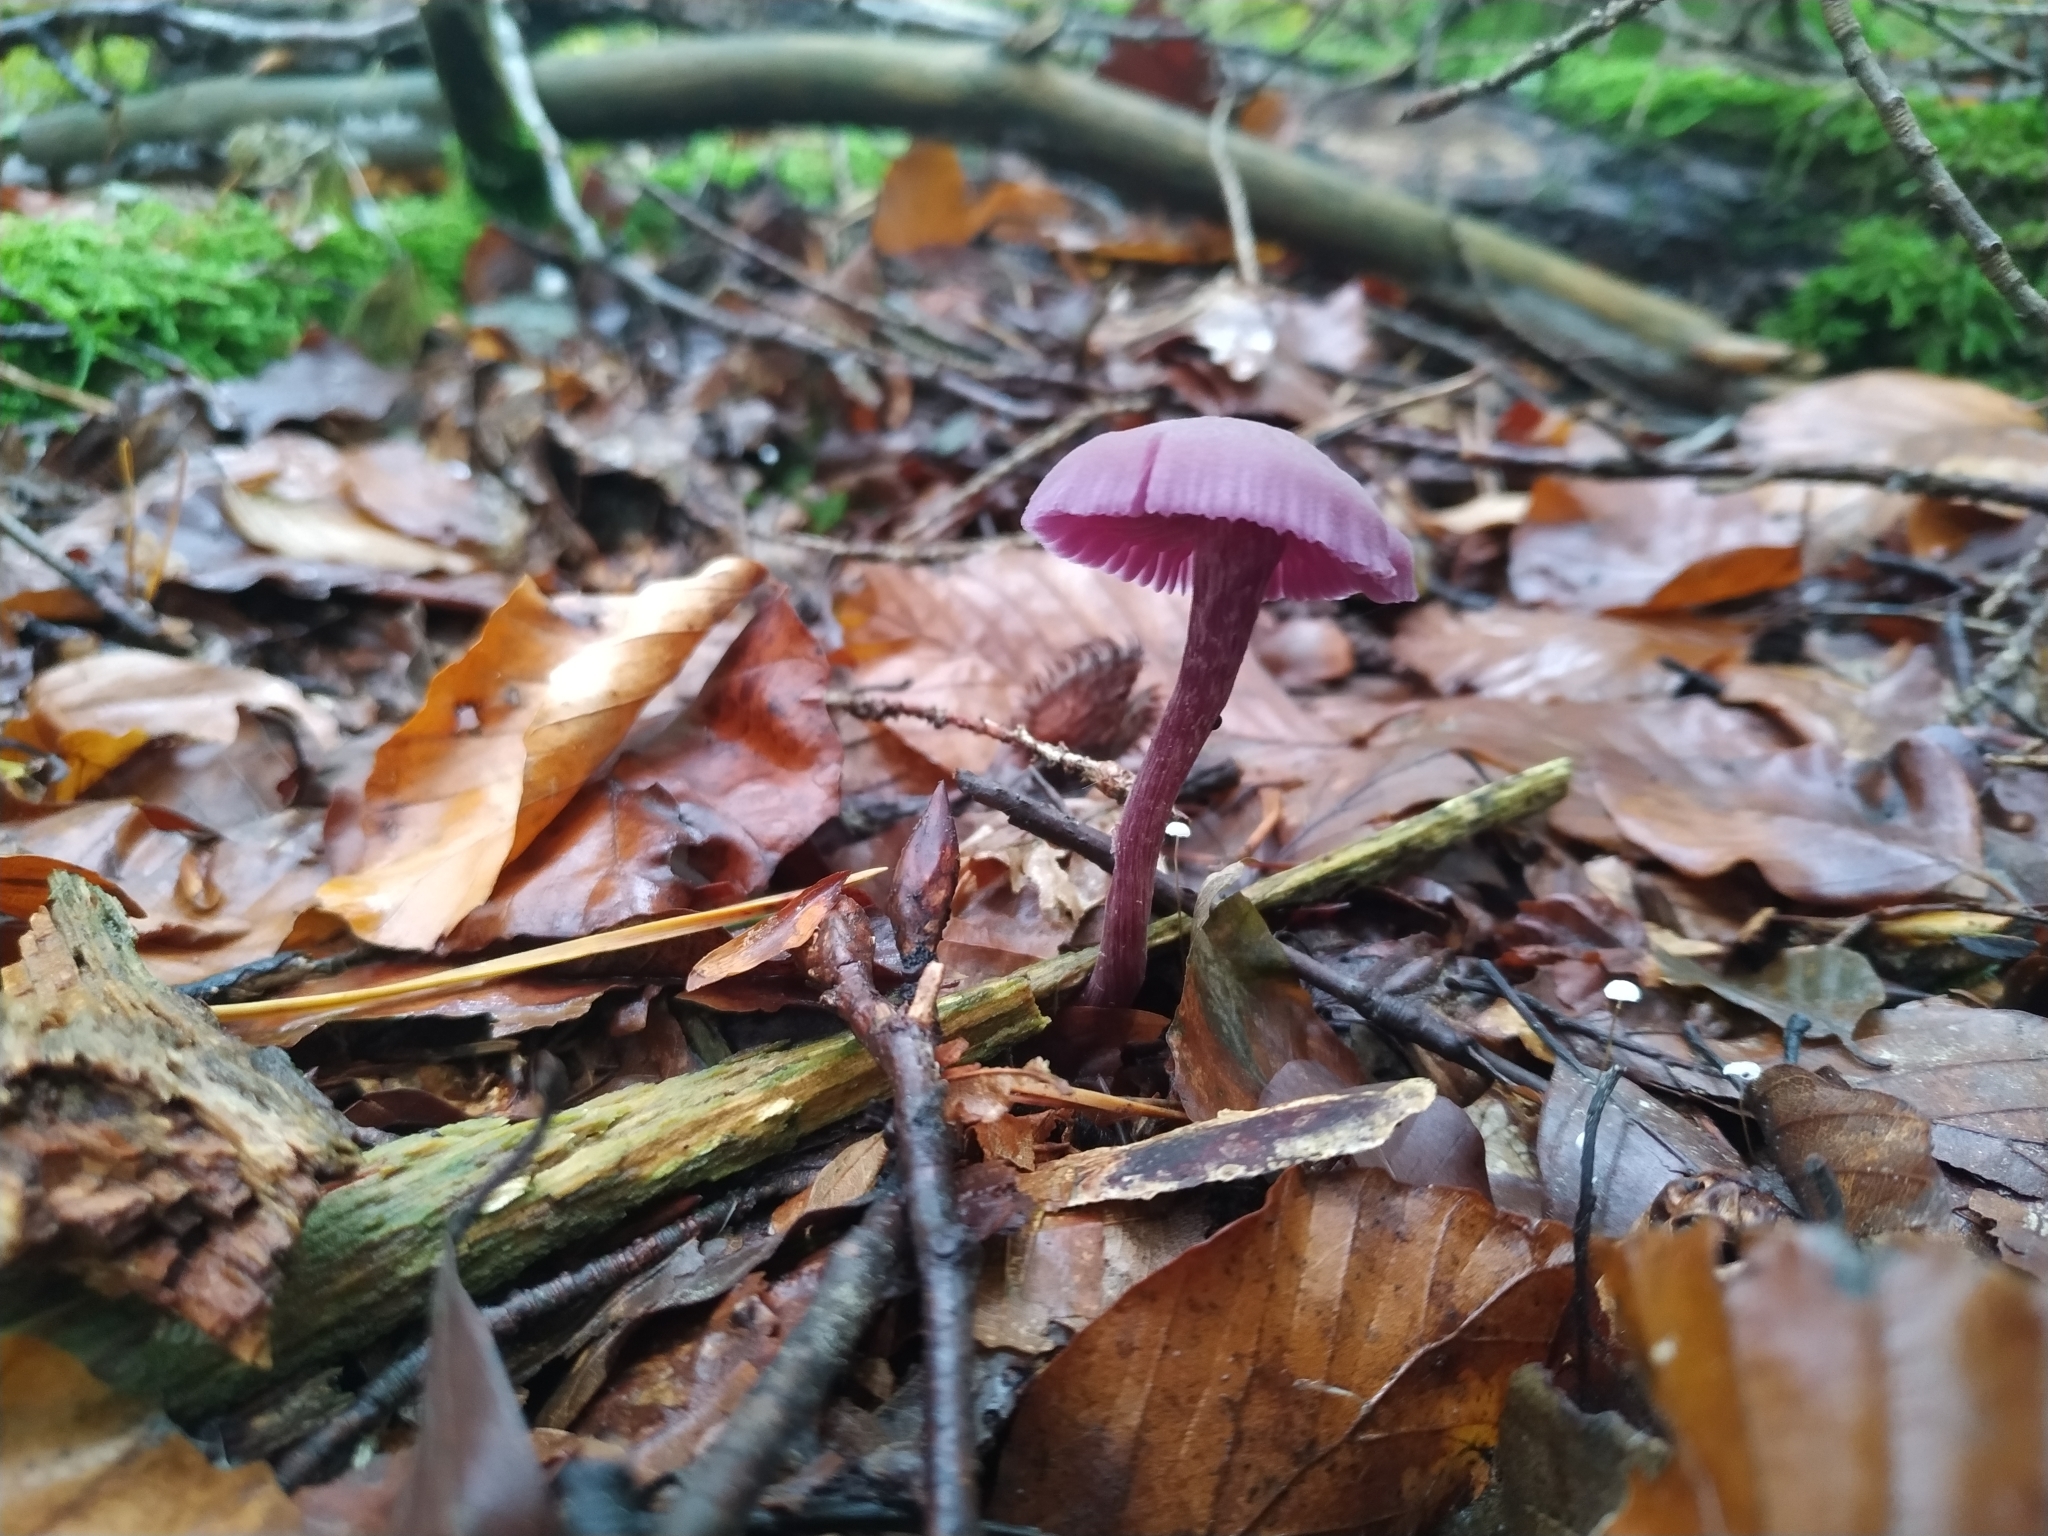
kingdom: Fungi
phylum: Basidiomycota
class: Agaricomycetes
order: Agaricales
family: Hydnangiaceae
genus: Laccaria
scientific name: Laccaria amethystina
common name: Amethyst deceiver
